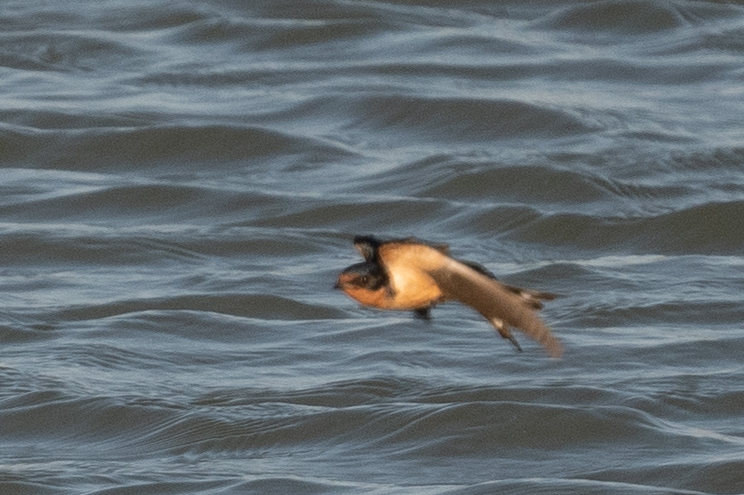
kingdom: Animalia
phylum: Chordata
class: Aves
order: Passeriformes
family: Hirundinidae
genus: Hirundo
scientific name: Hirundo rustica
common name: Barn swallow
